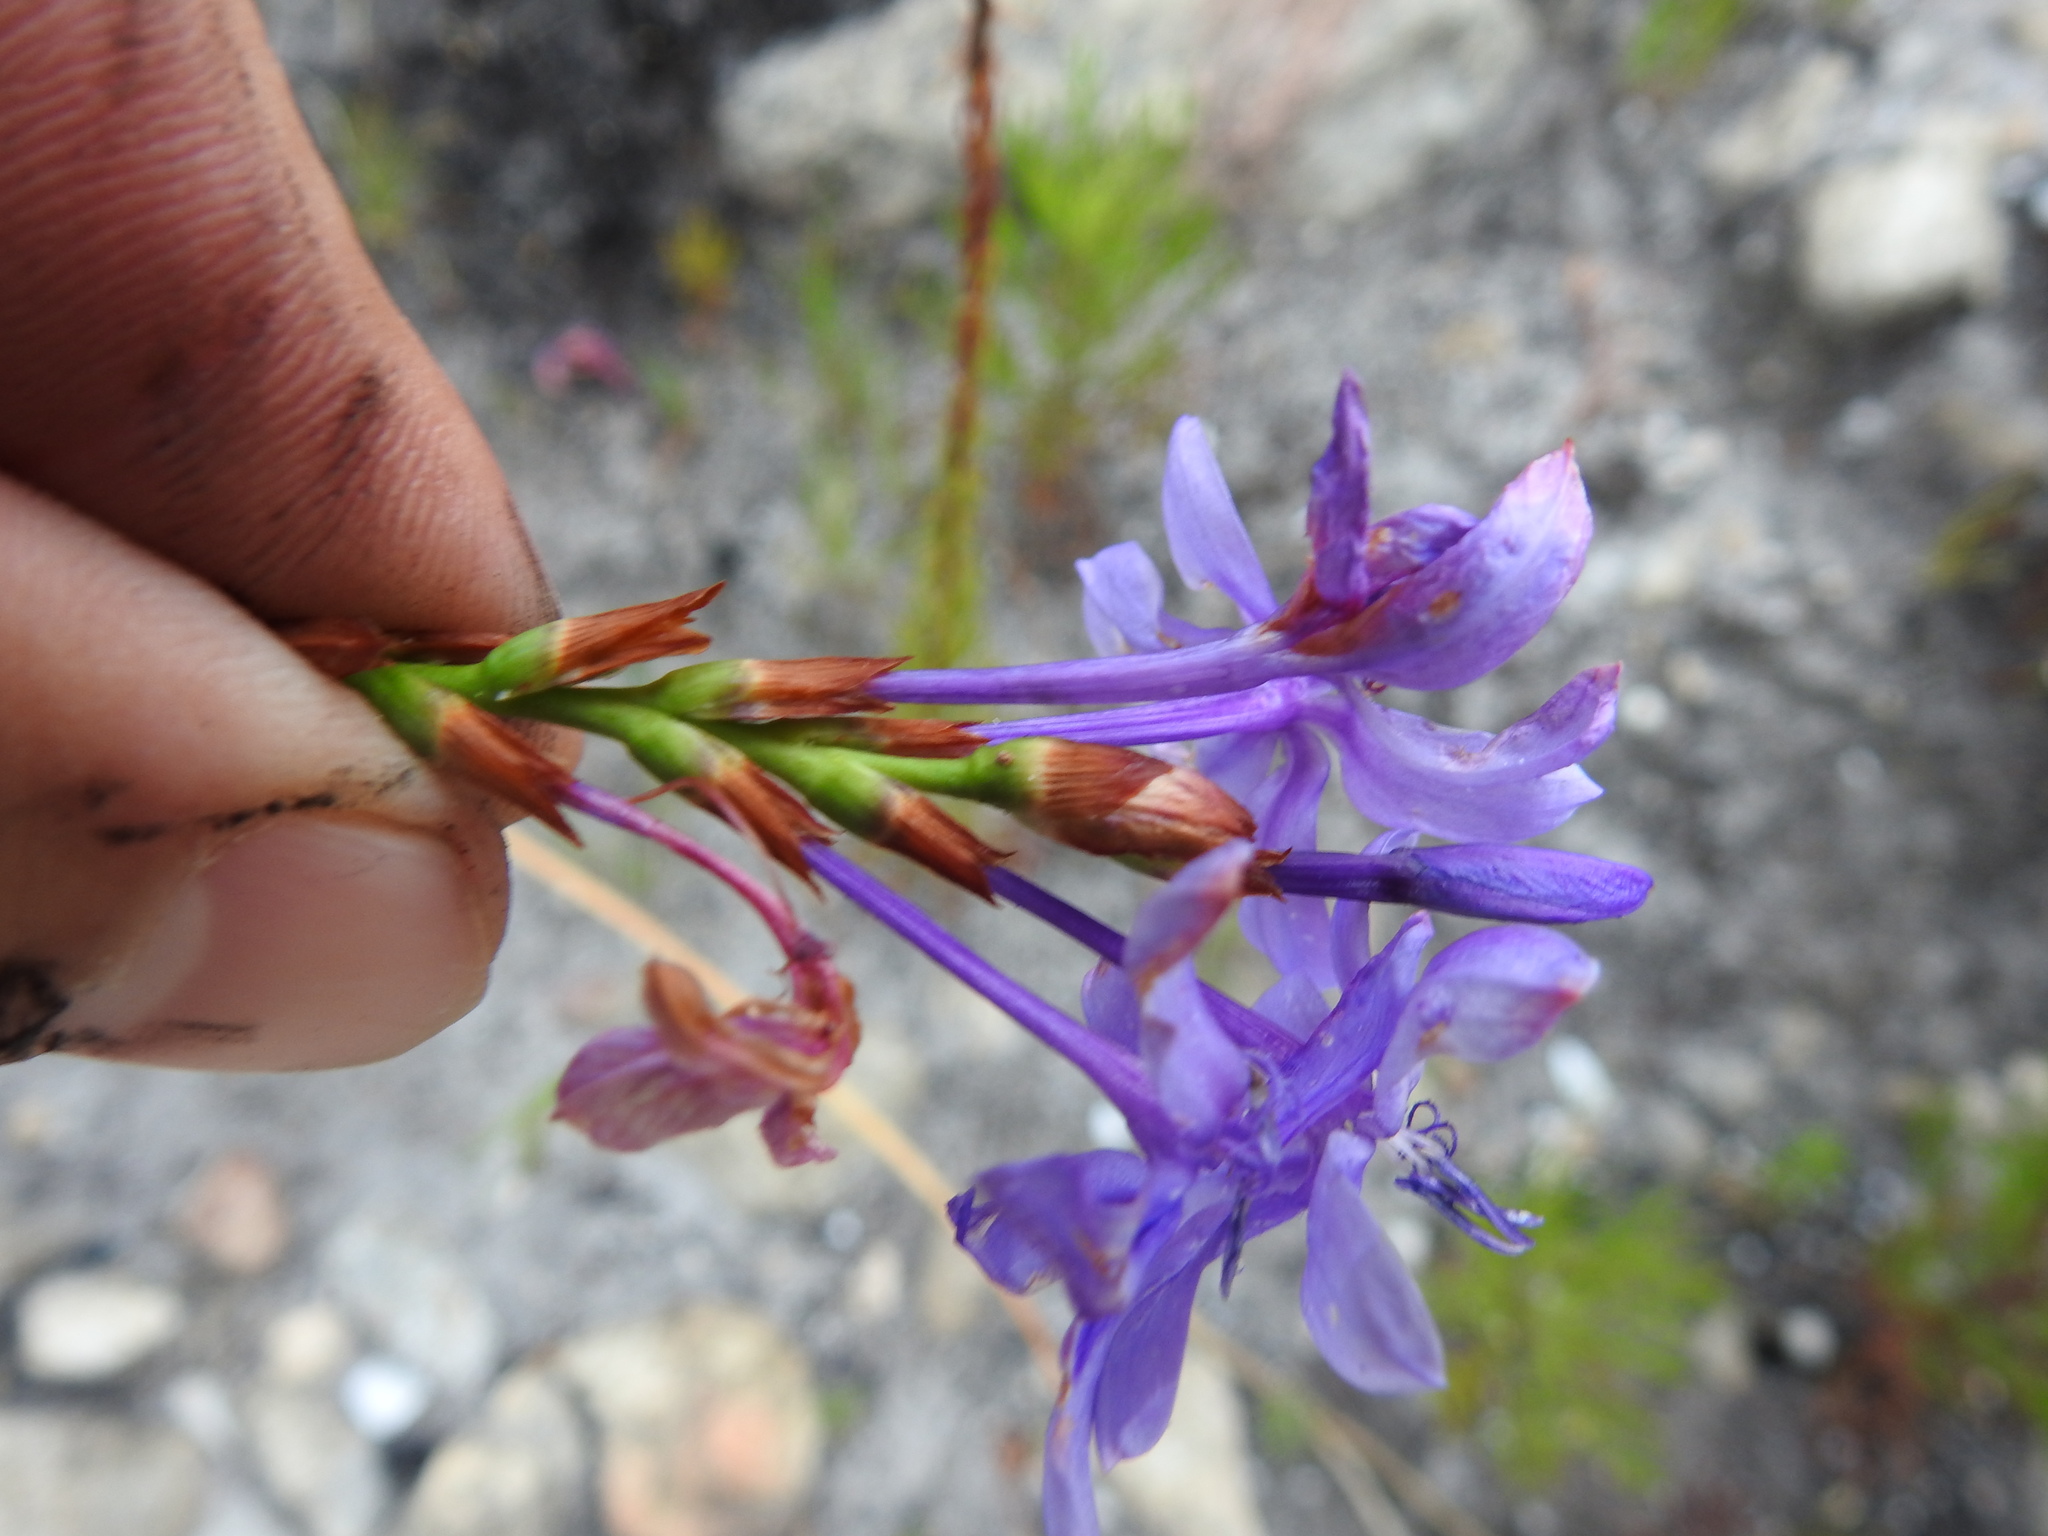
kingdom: Plantae
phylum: Tracheophyta
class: Liliopsida
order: Asparagales
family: Iridaceae
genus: Thereianthus
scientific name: Thereianthus spicatus
